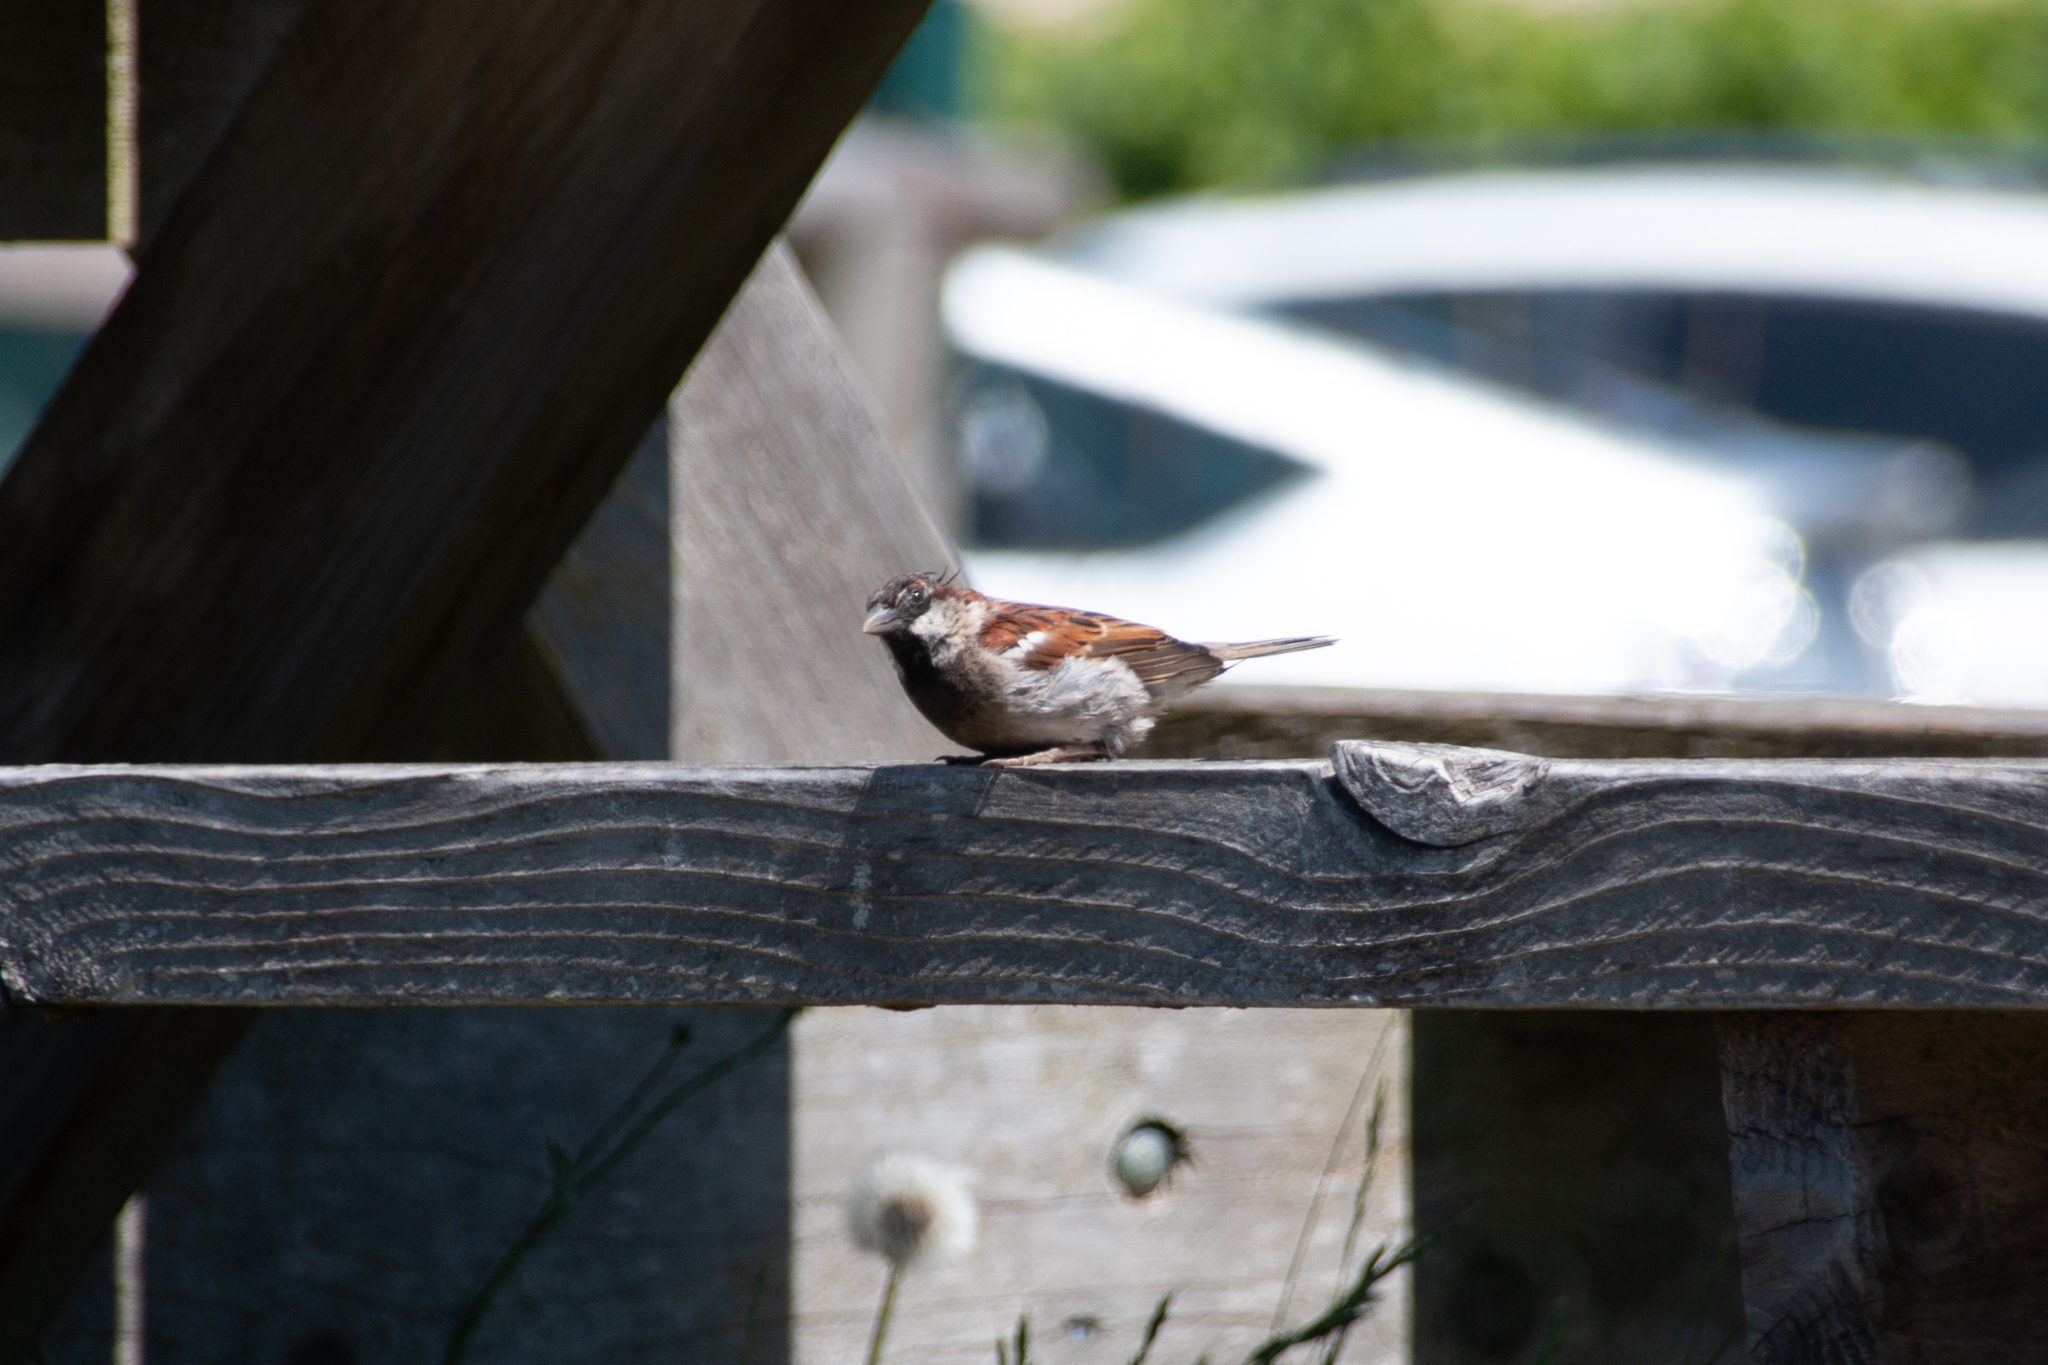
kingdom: Animalia
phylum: Chordata
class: Aves
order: Passeriformes
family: Passeridae
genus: Passer
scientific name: Passer domesticus
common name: House sparrow
